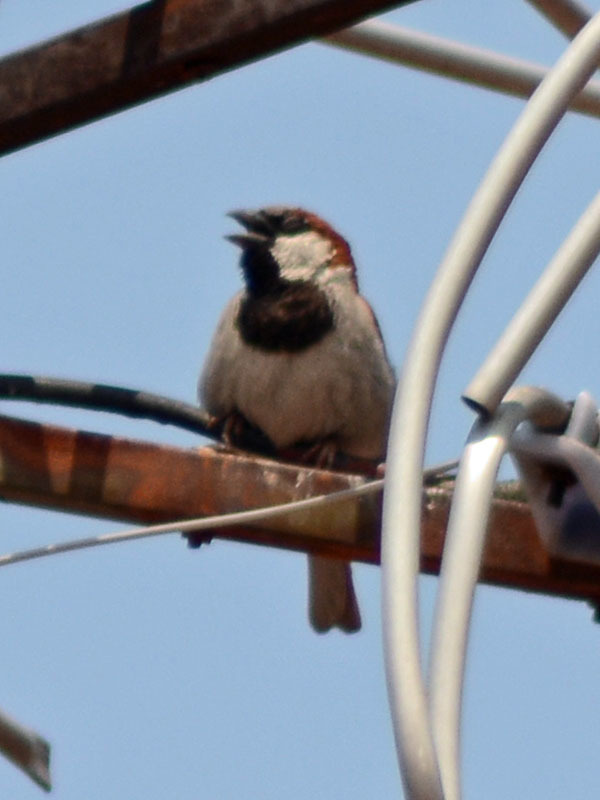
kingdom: Animalia
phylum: Chordata
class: Aves
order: Passeriformes
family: Passeridae
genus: Passer
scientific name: Passer domesticus
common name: House sparrow
